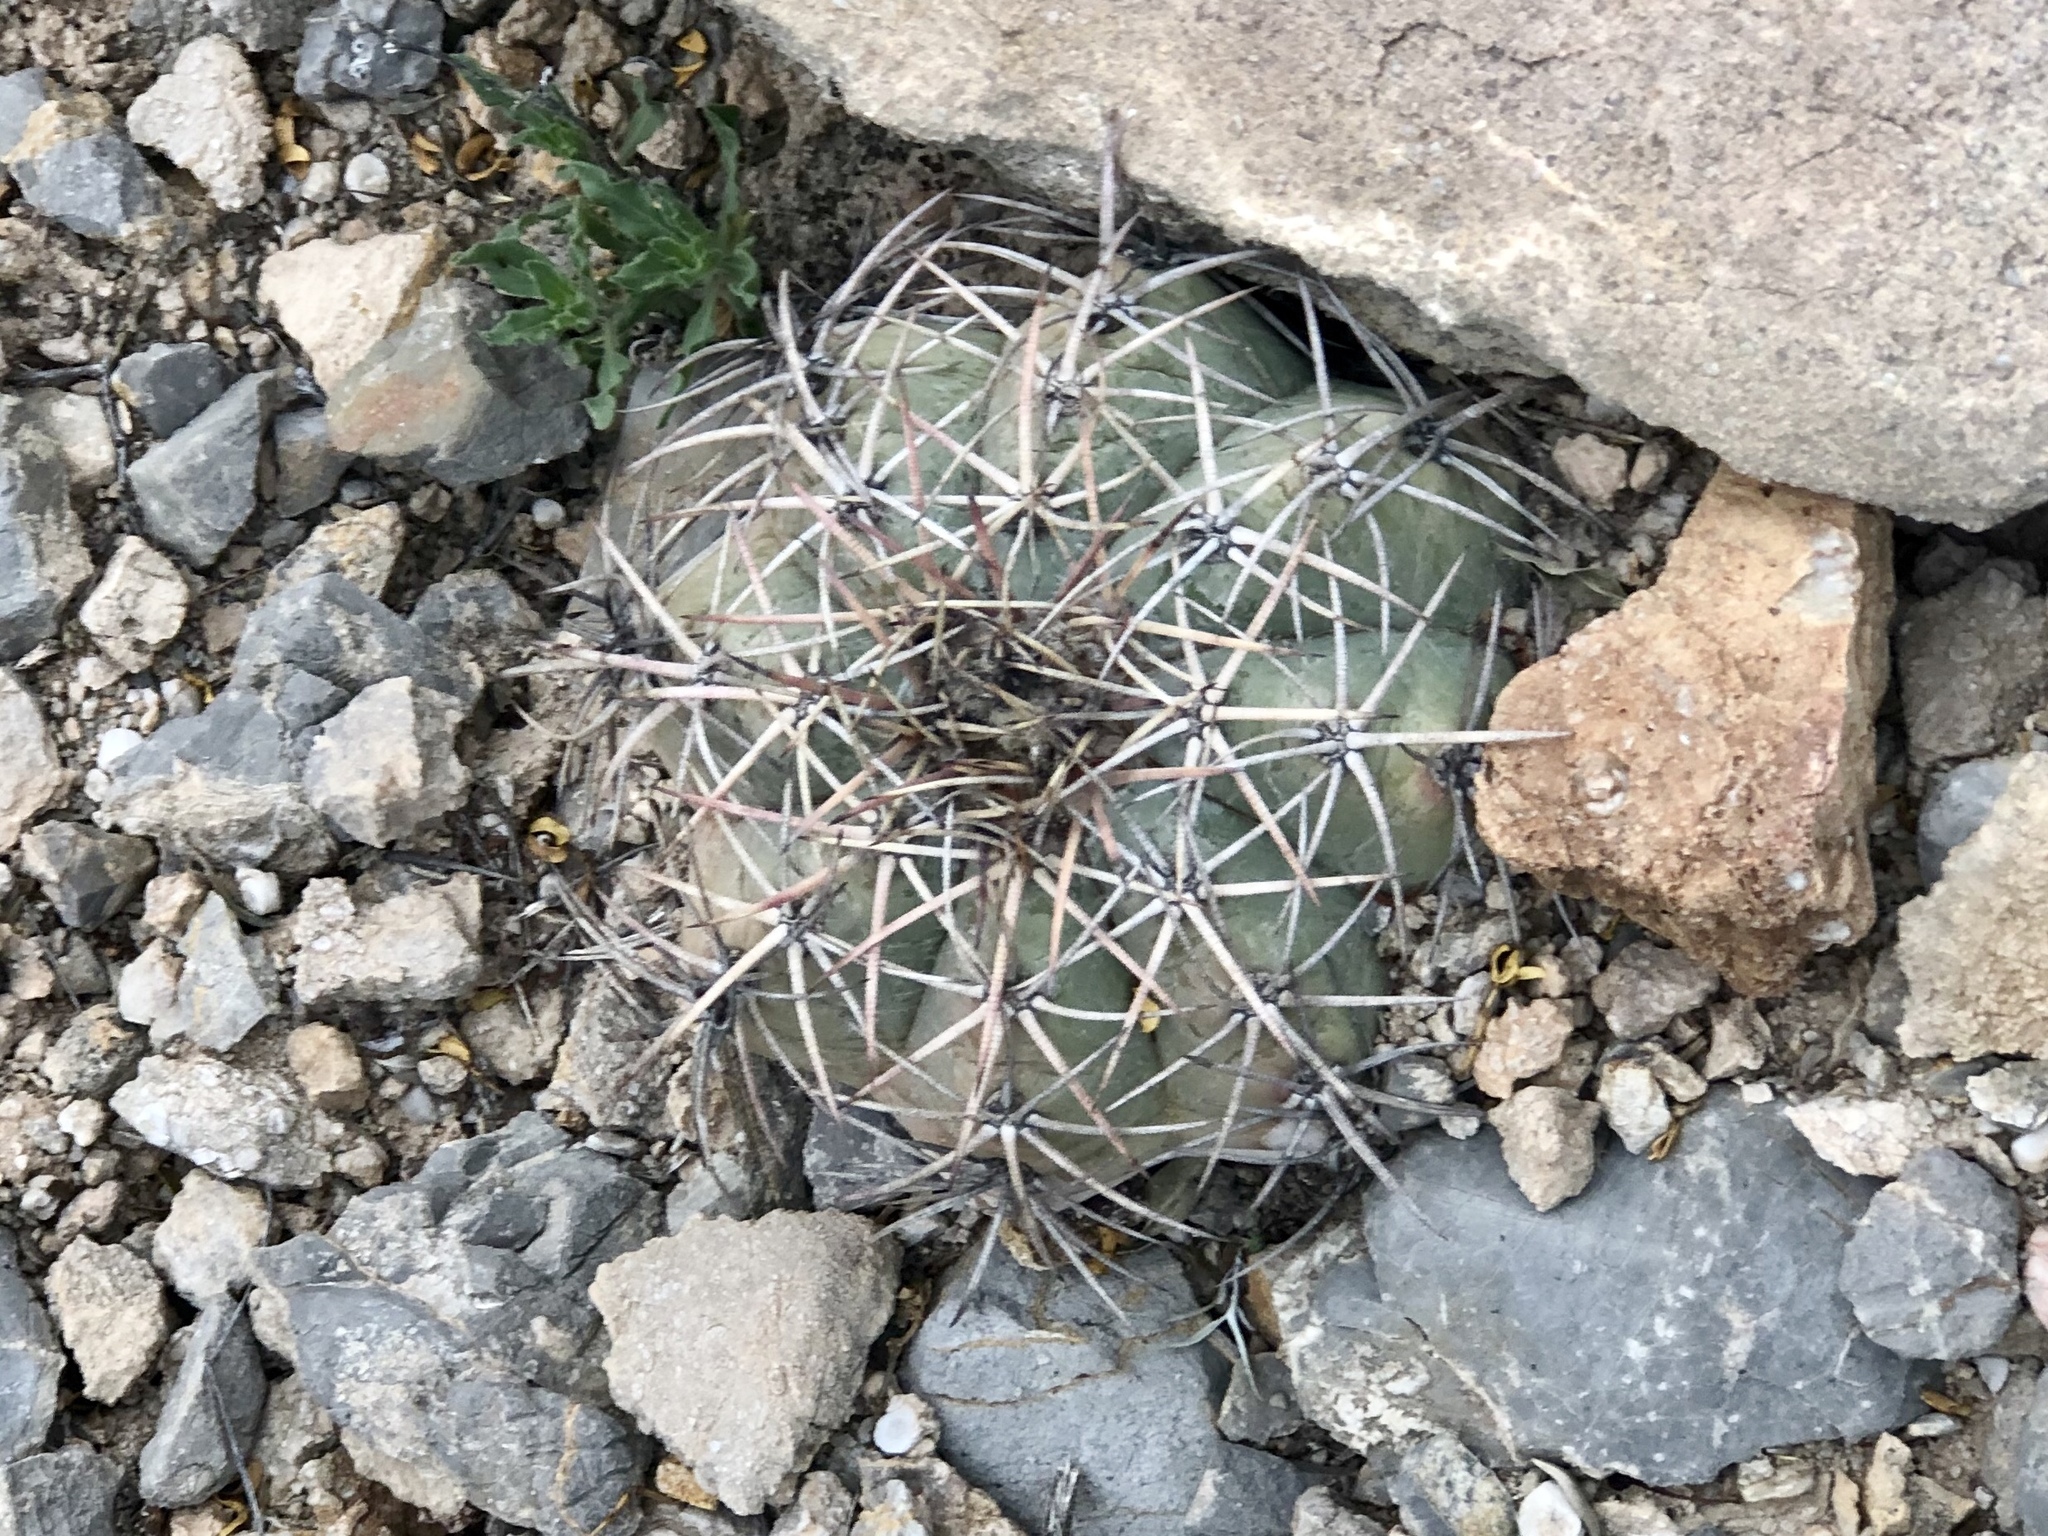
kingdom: Plantae
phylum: Tracheophyta
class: Magnoliopsida
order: Caryophyllales
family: Cactaceae
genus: Echinocactus
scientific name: Echinocactus horizonthalonius
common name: Devilshead
